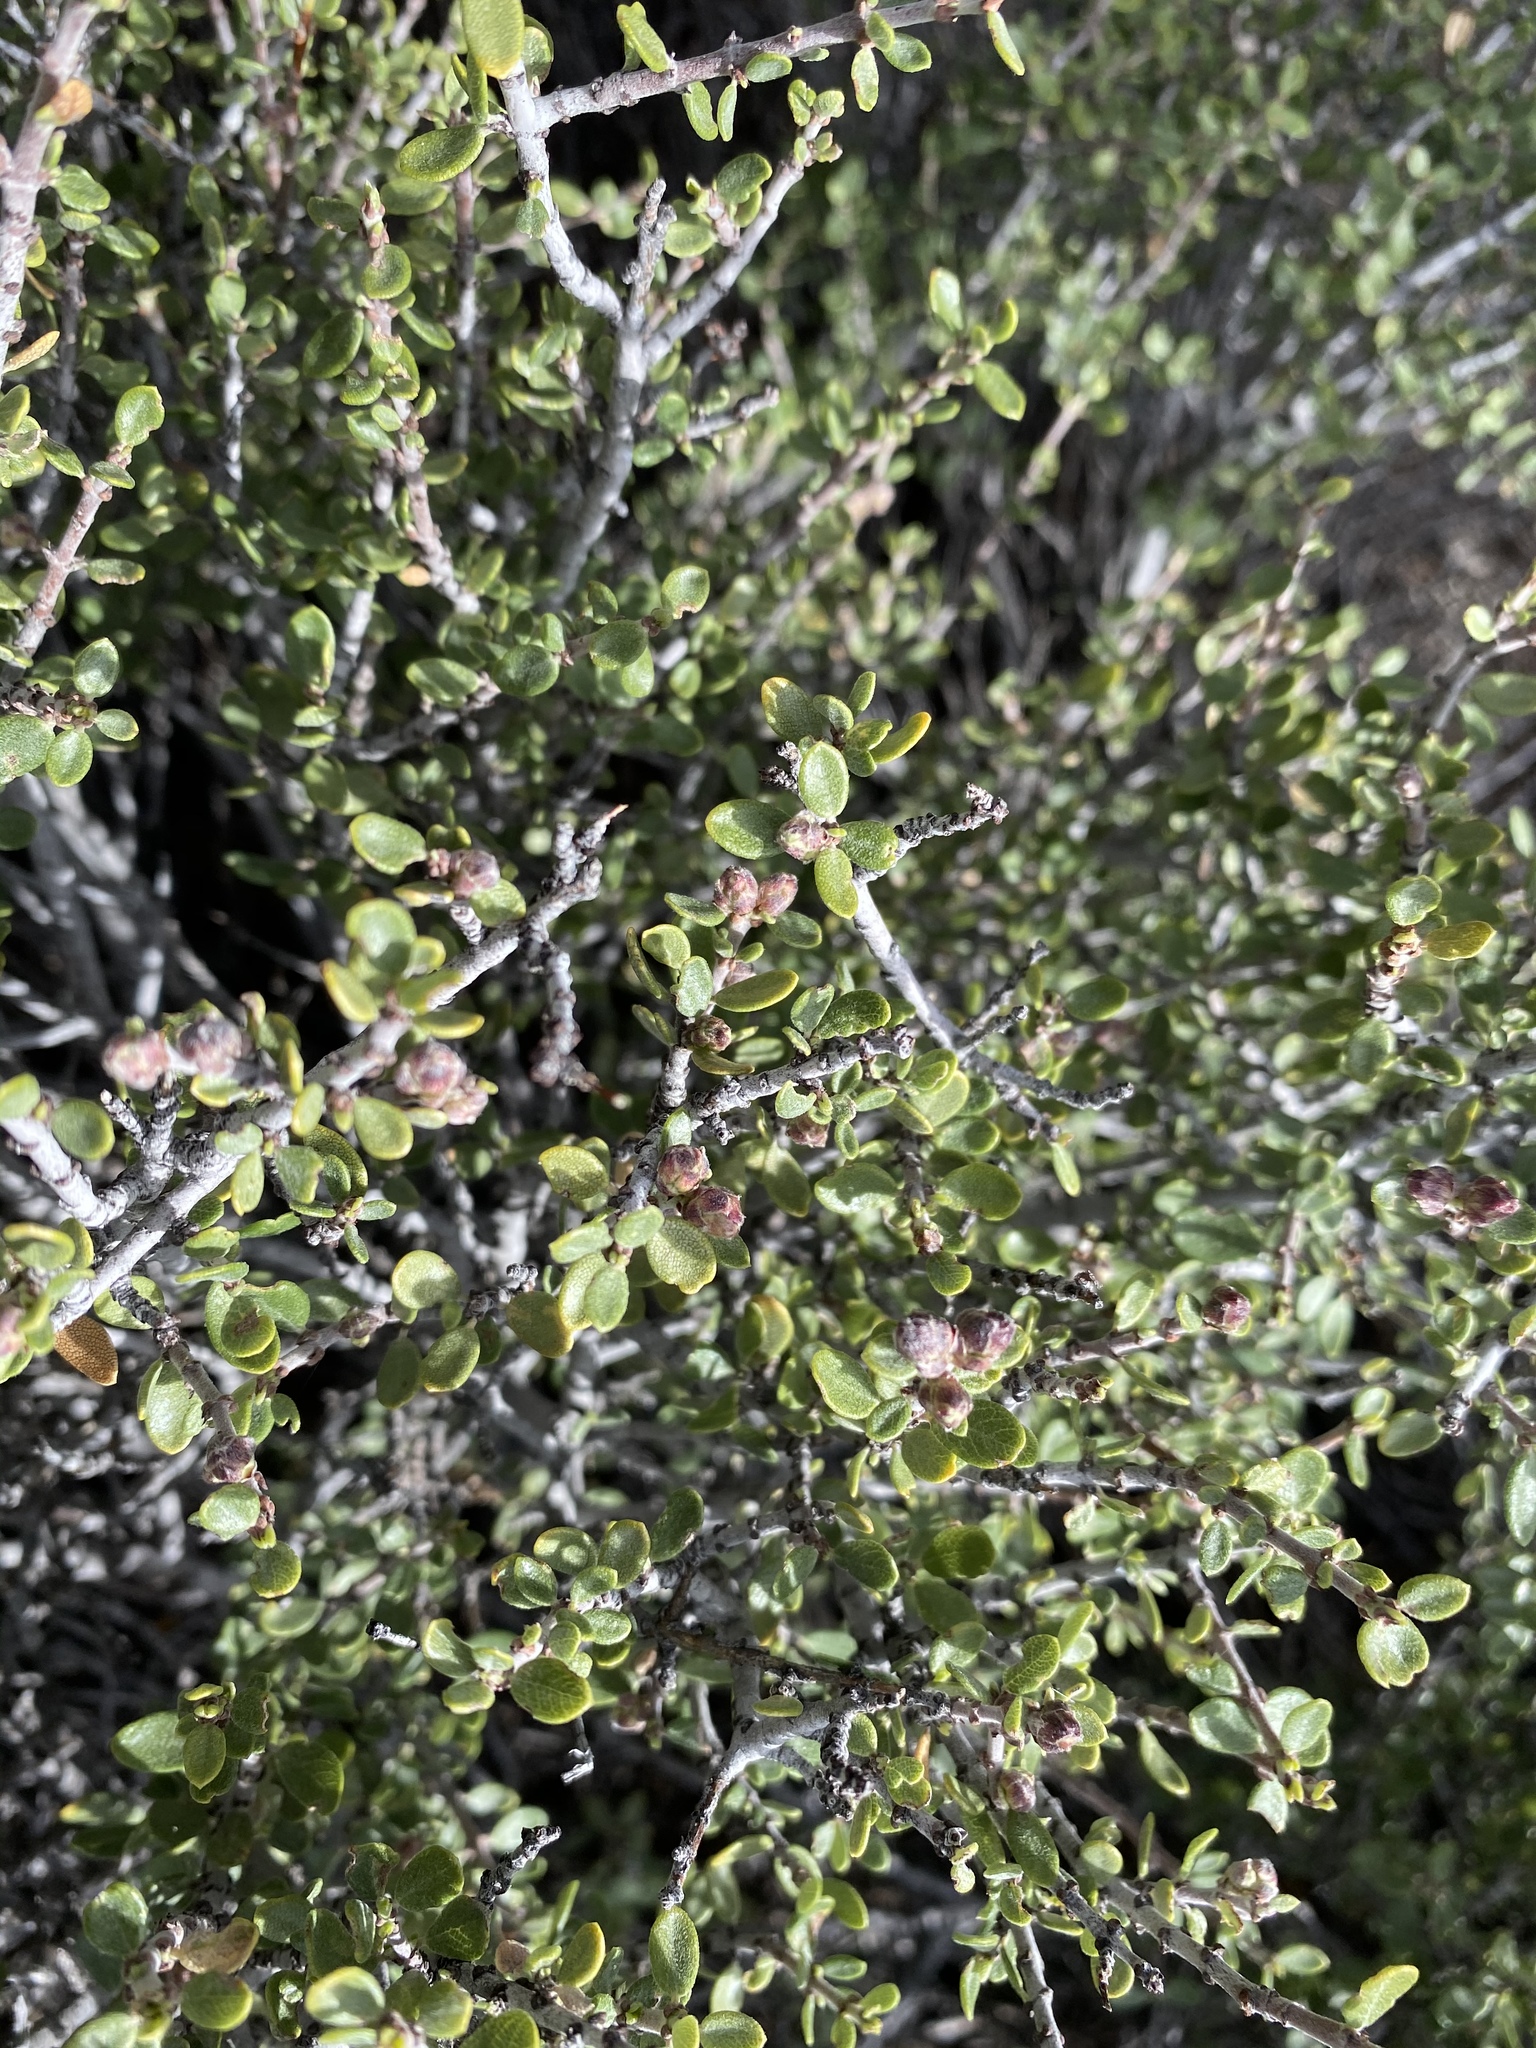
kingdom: Plantae
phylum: Tracheophyta
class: Magnoliopsida
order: Rosales
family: Rhamnaceae
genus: Ceanothus
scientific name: Ceanothus pauciflorus
